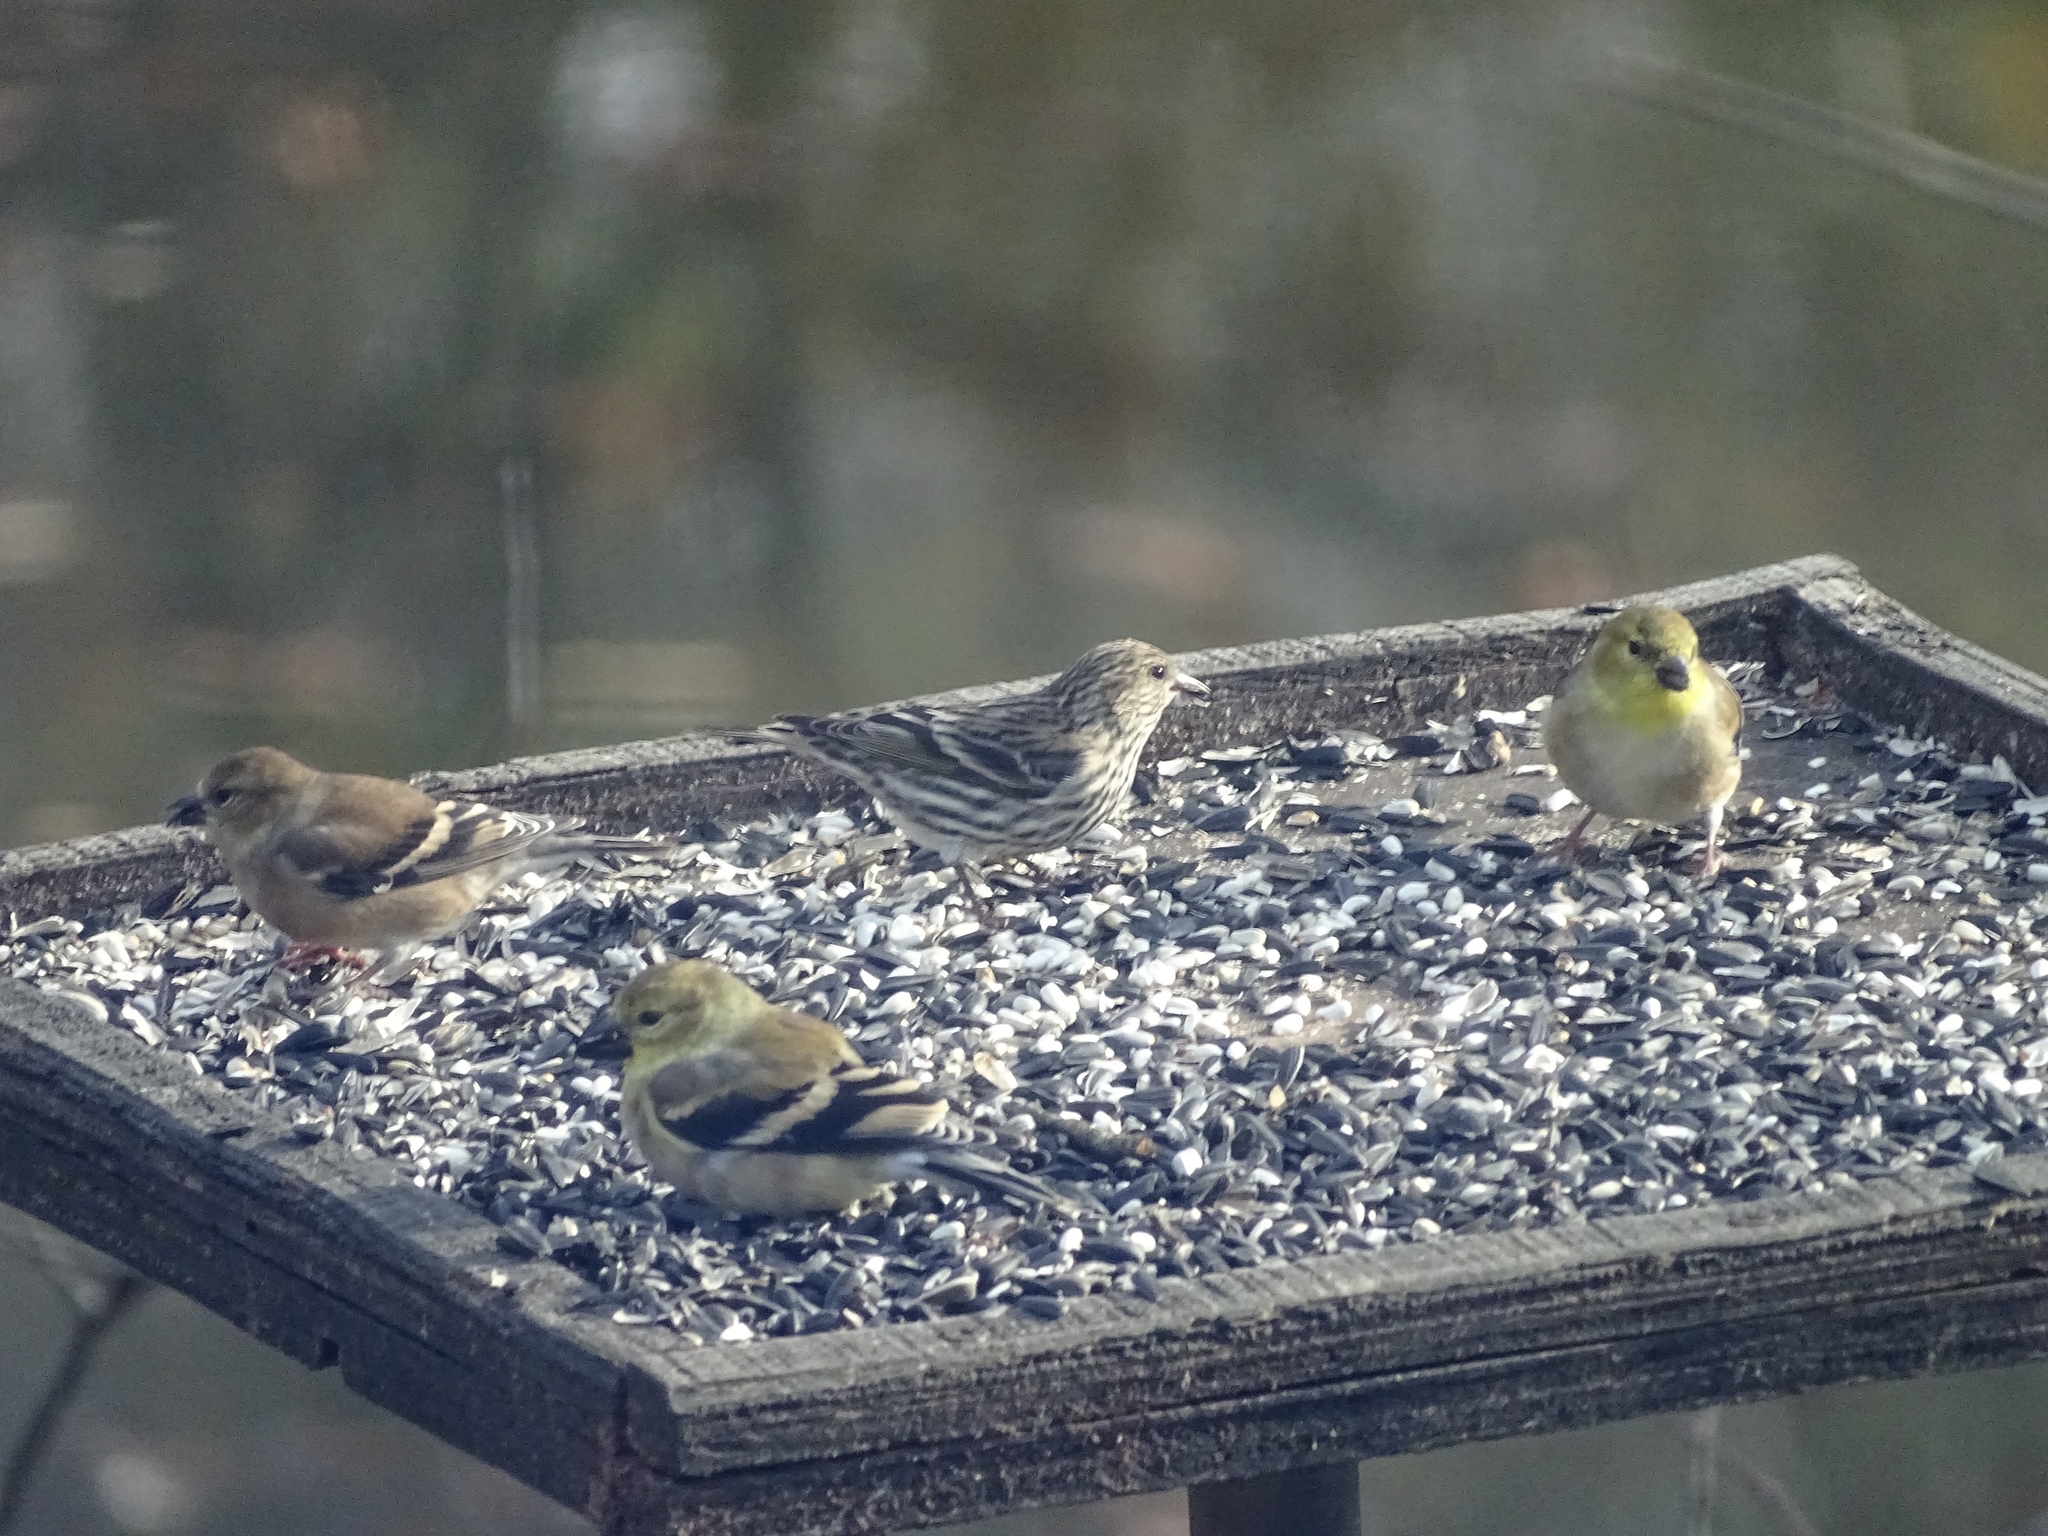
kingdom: Animalia
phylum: Chordata
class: Aves
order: Passeriformes
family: Fringillidae
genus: Spinus
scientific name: Spinus pinus
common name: Pine siskin
